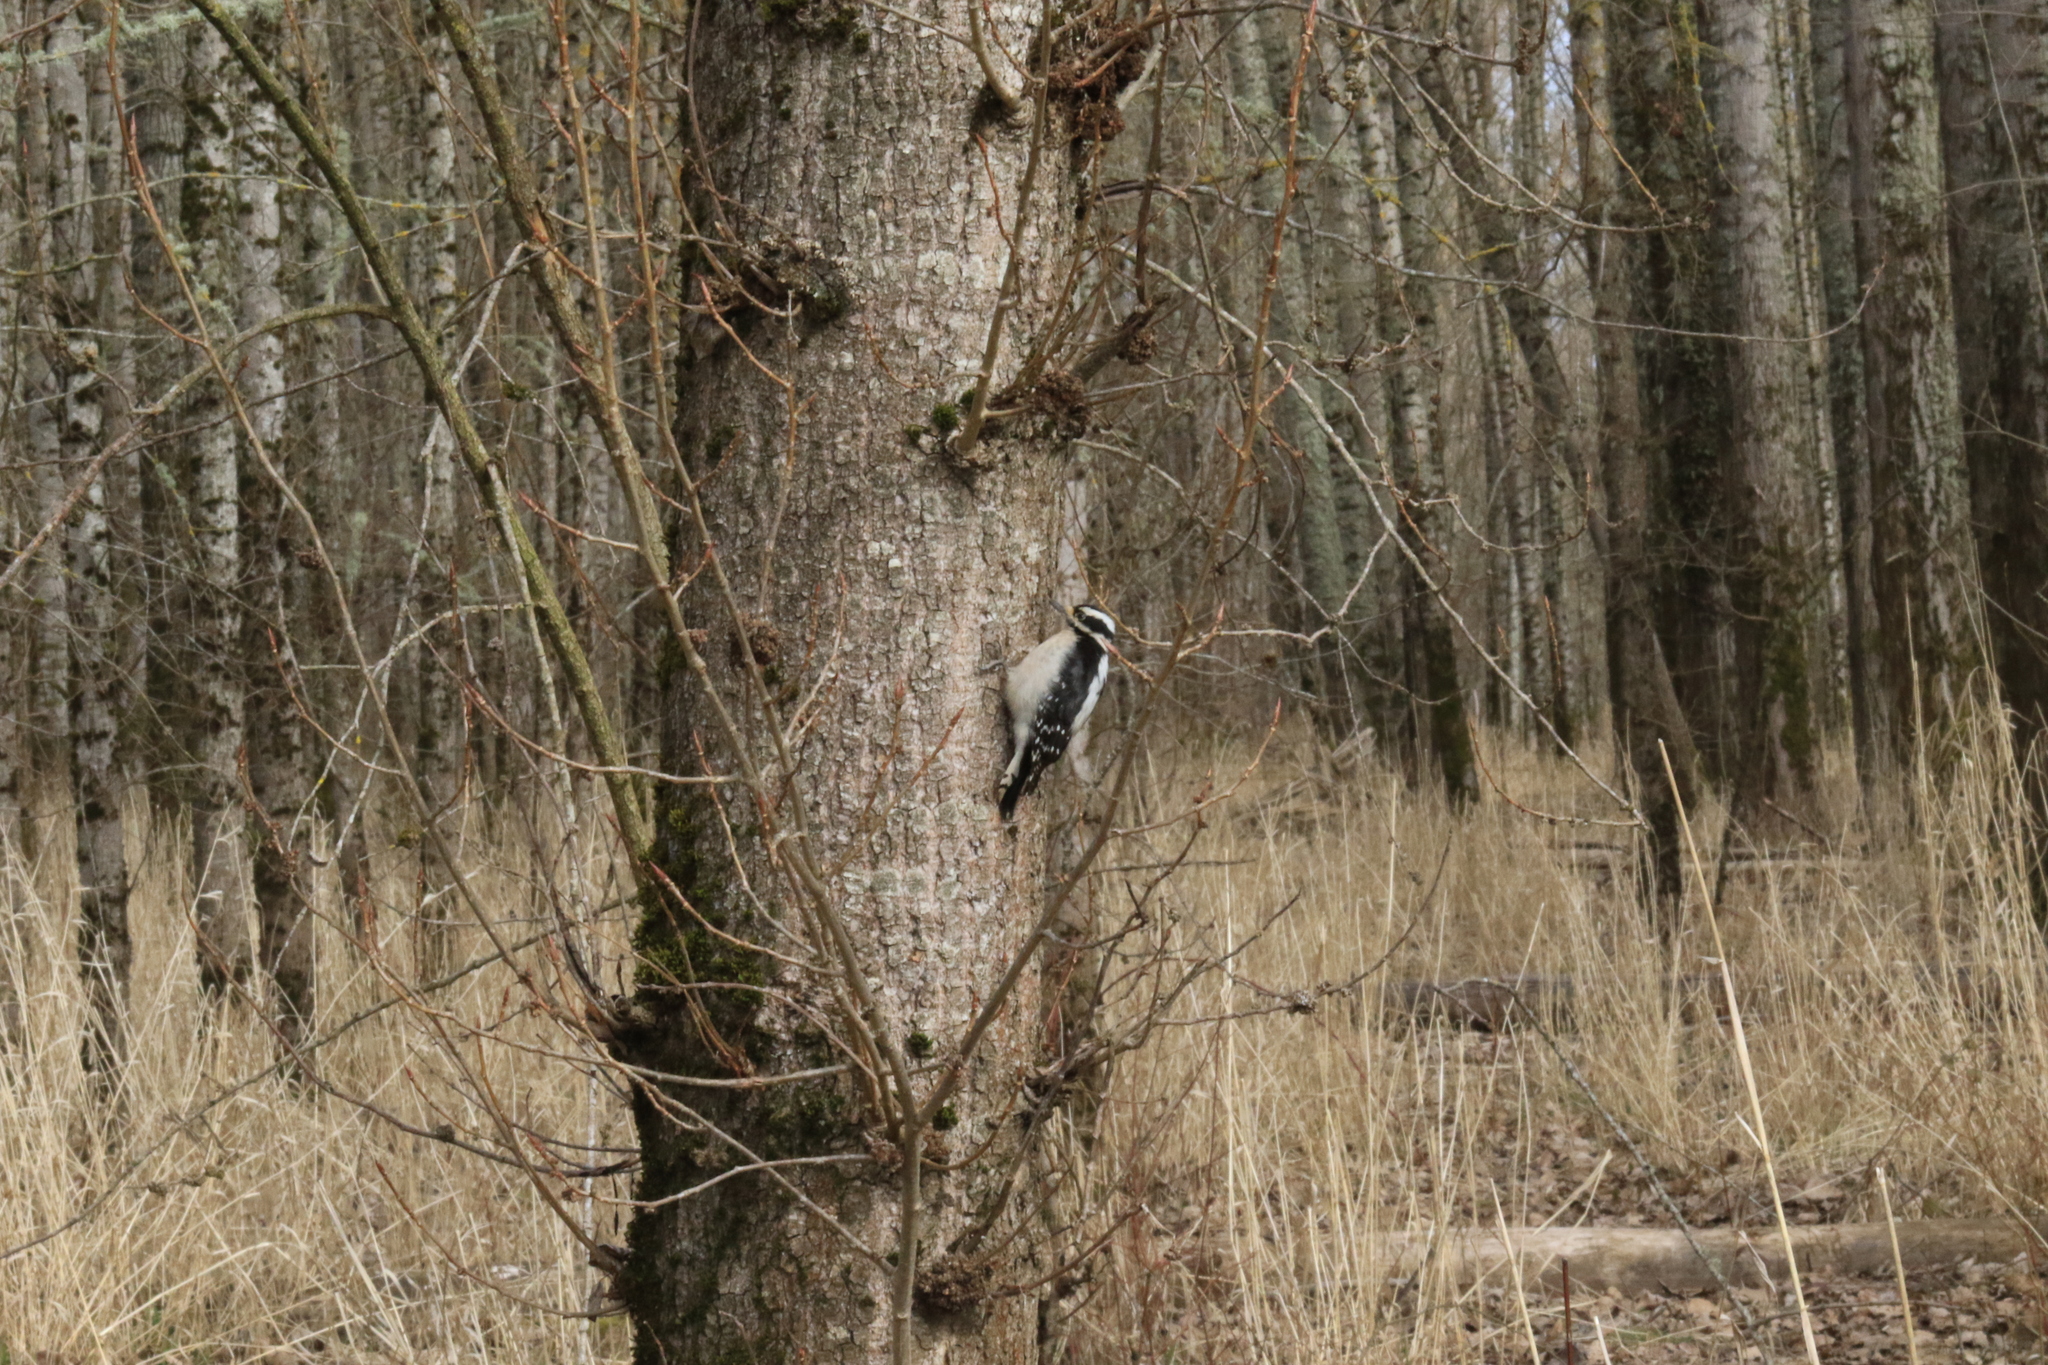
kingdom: Animalia
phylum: Chordata
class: Aves
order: Piciformes
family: Picidae
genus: Dryobates
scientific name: Dryobates pubescens
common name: Downy woodpecker
